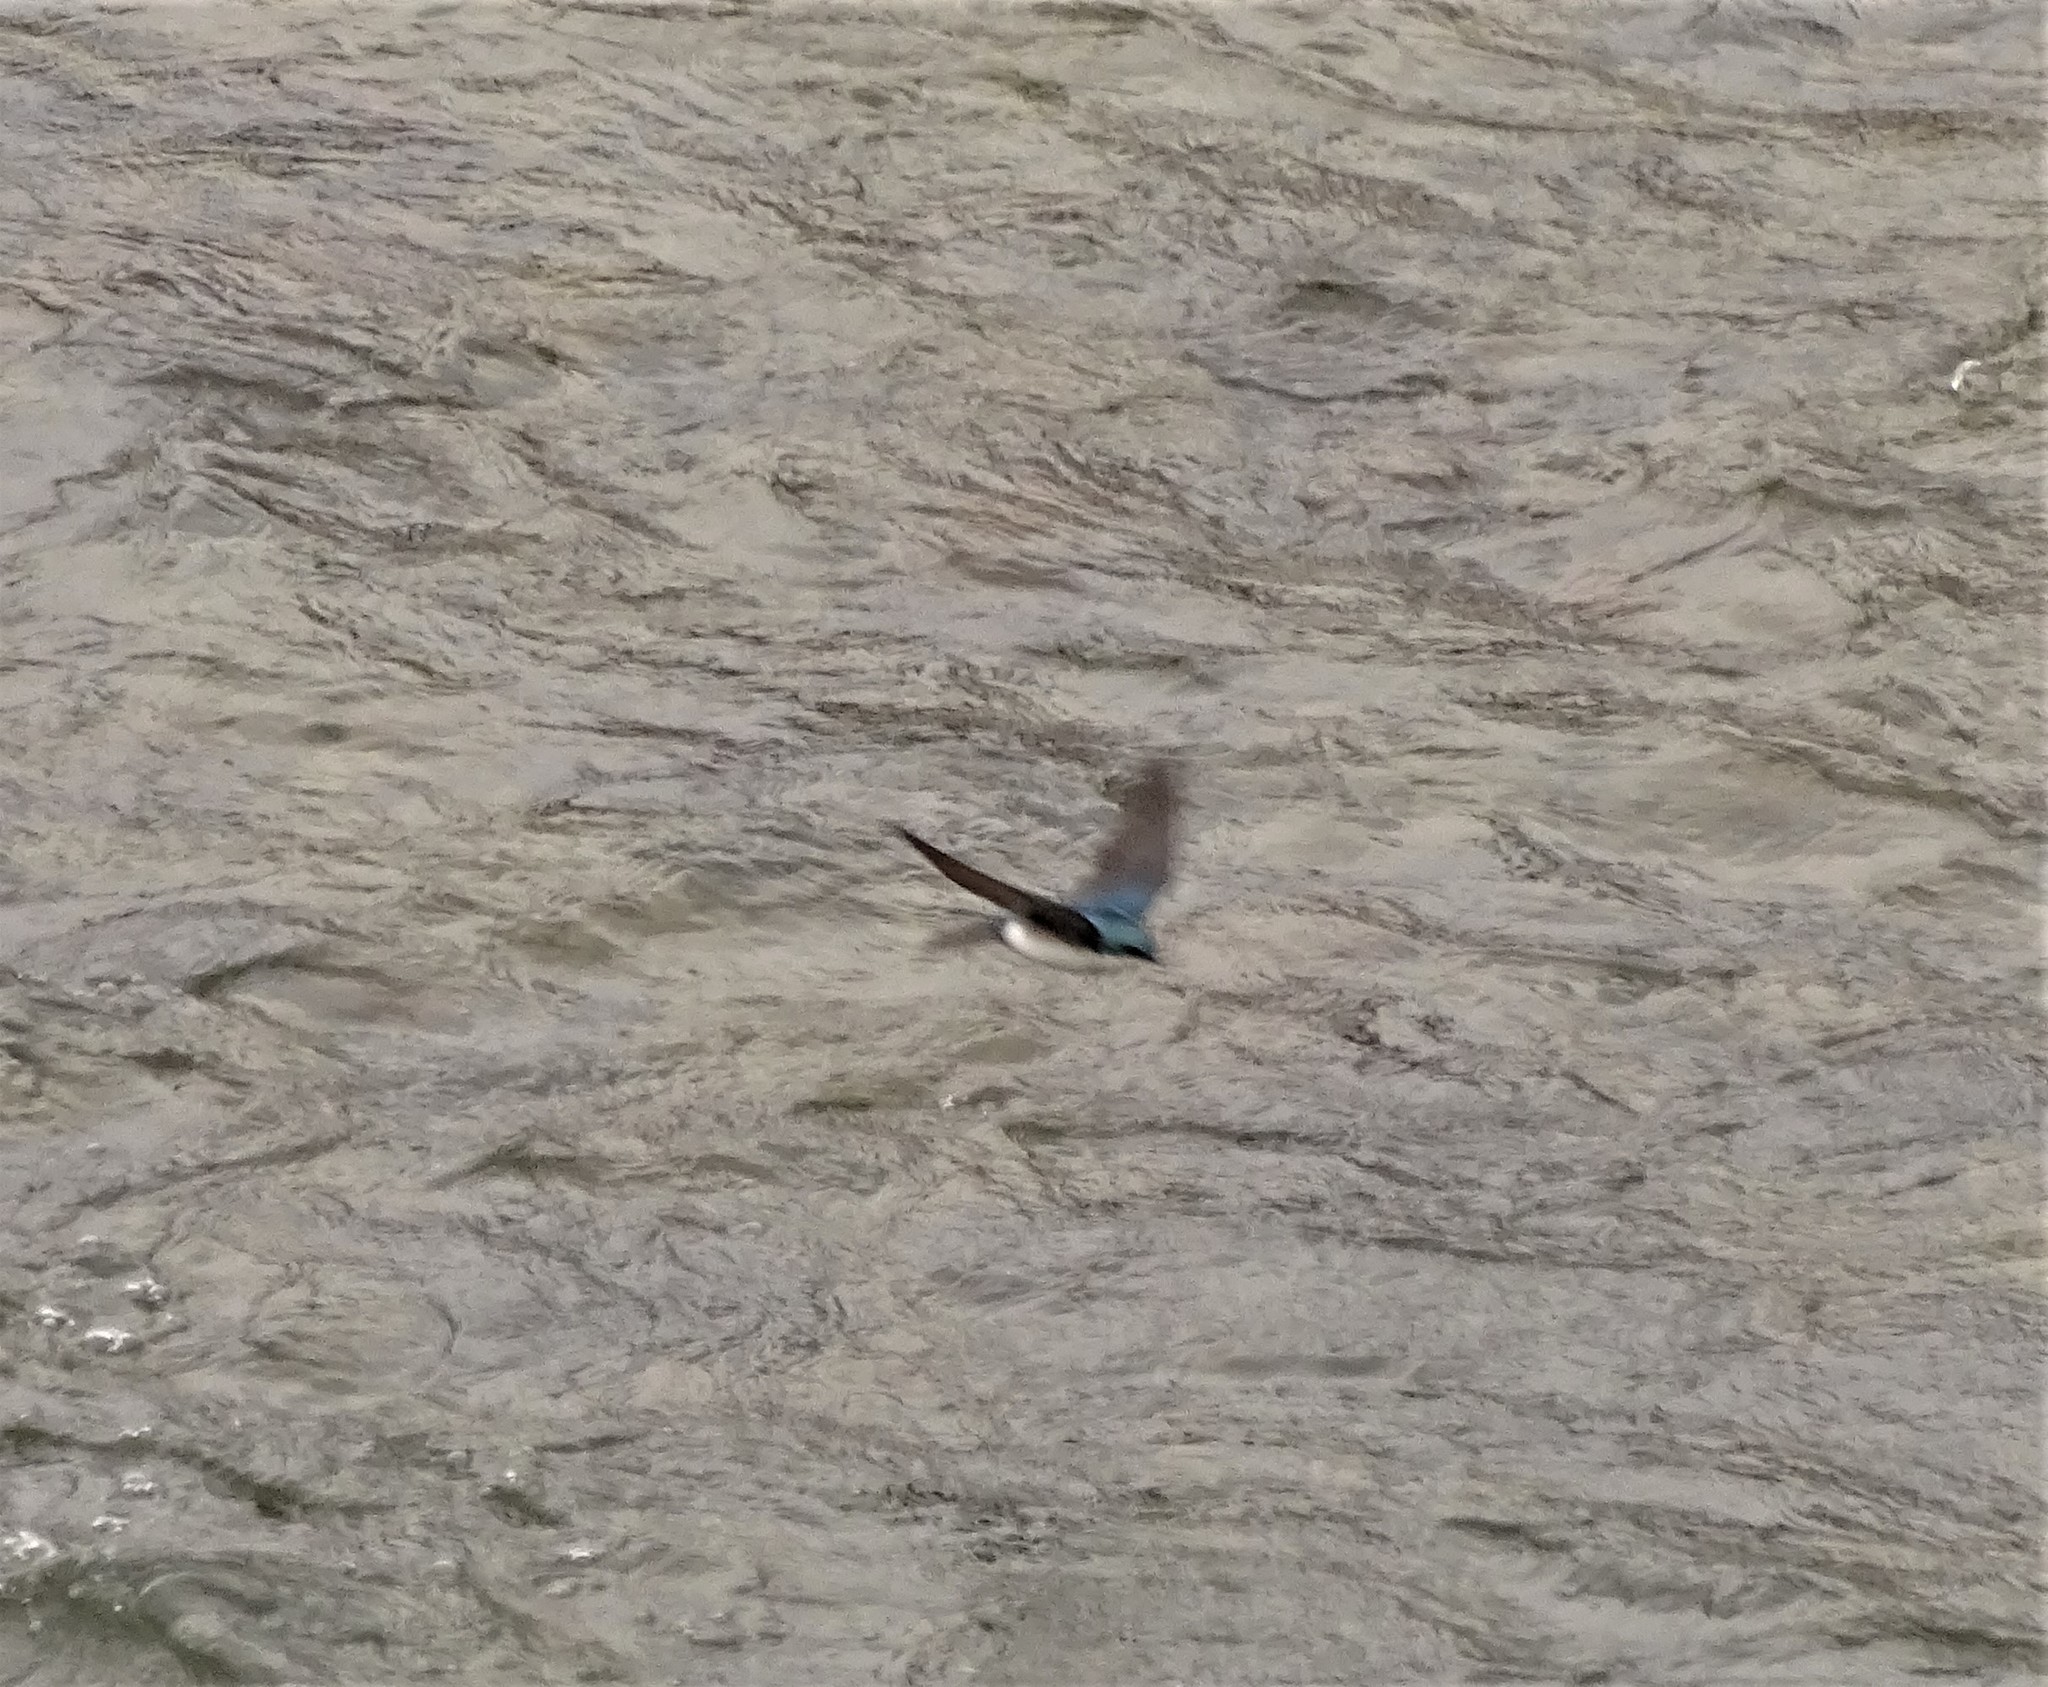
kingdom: Animalia
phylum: Chordata
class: Aves
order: Passeriformes
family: Hirundinidae
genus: Tachycineta
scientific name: Tachycineta bicolor
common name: Tree swallow
